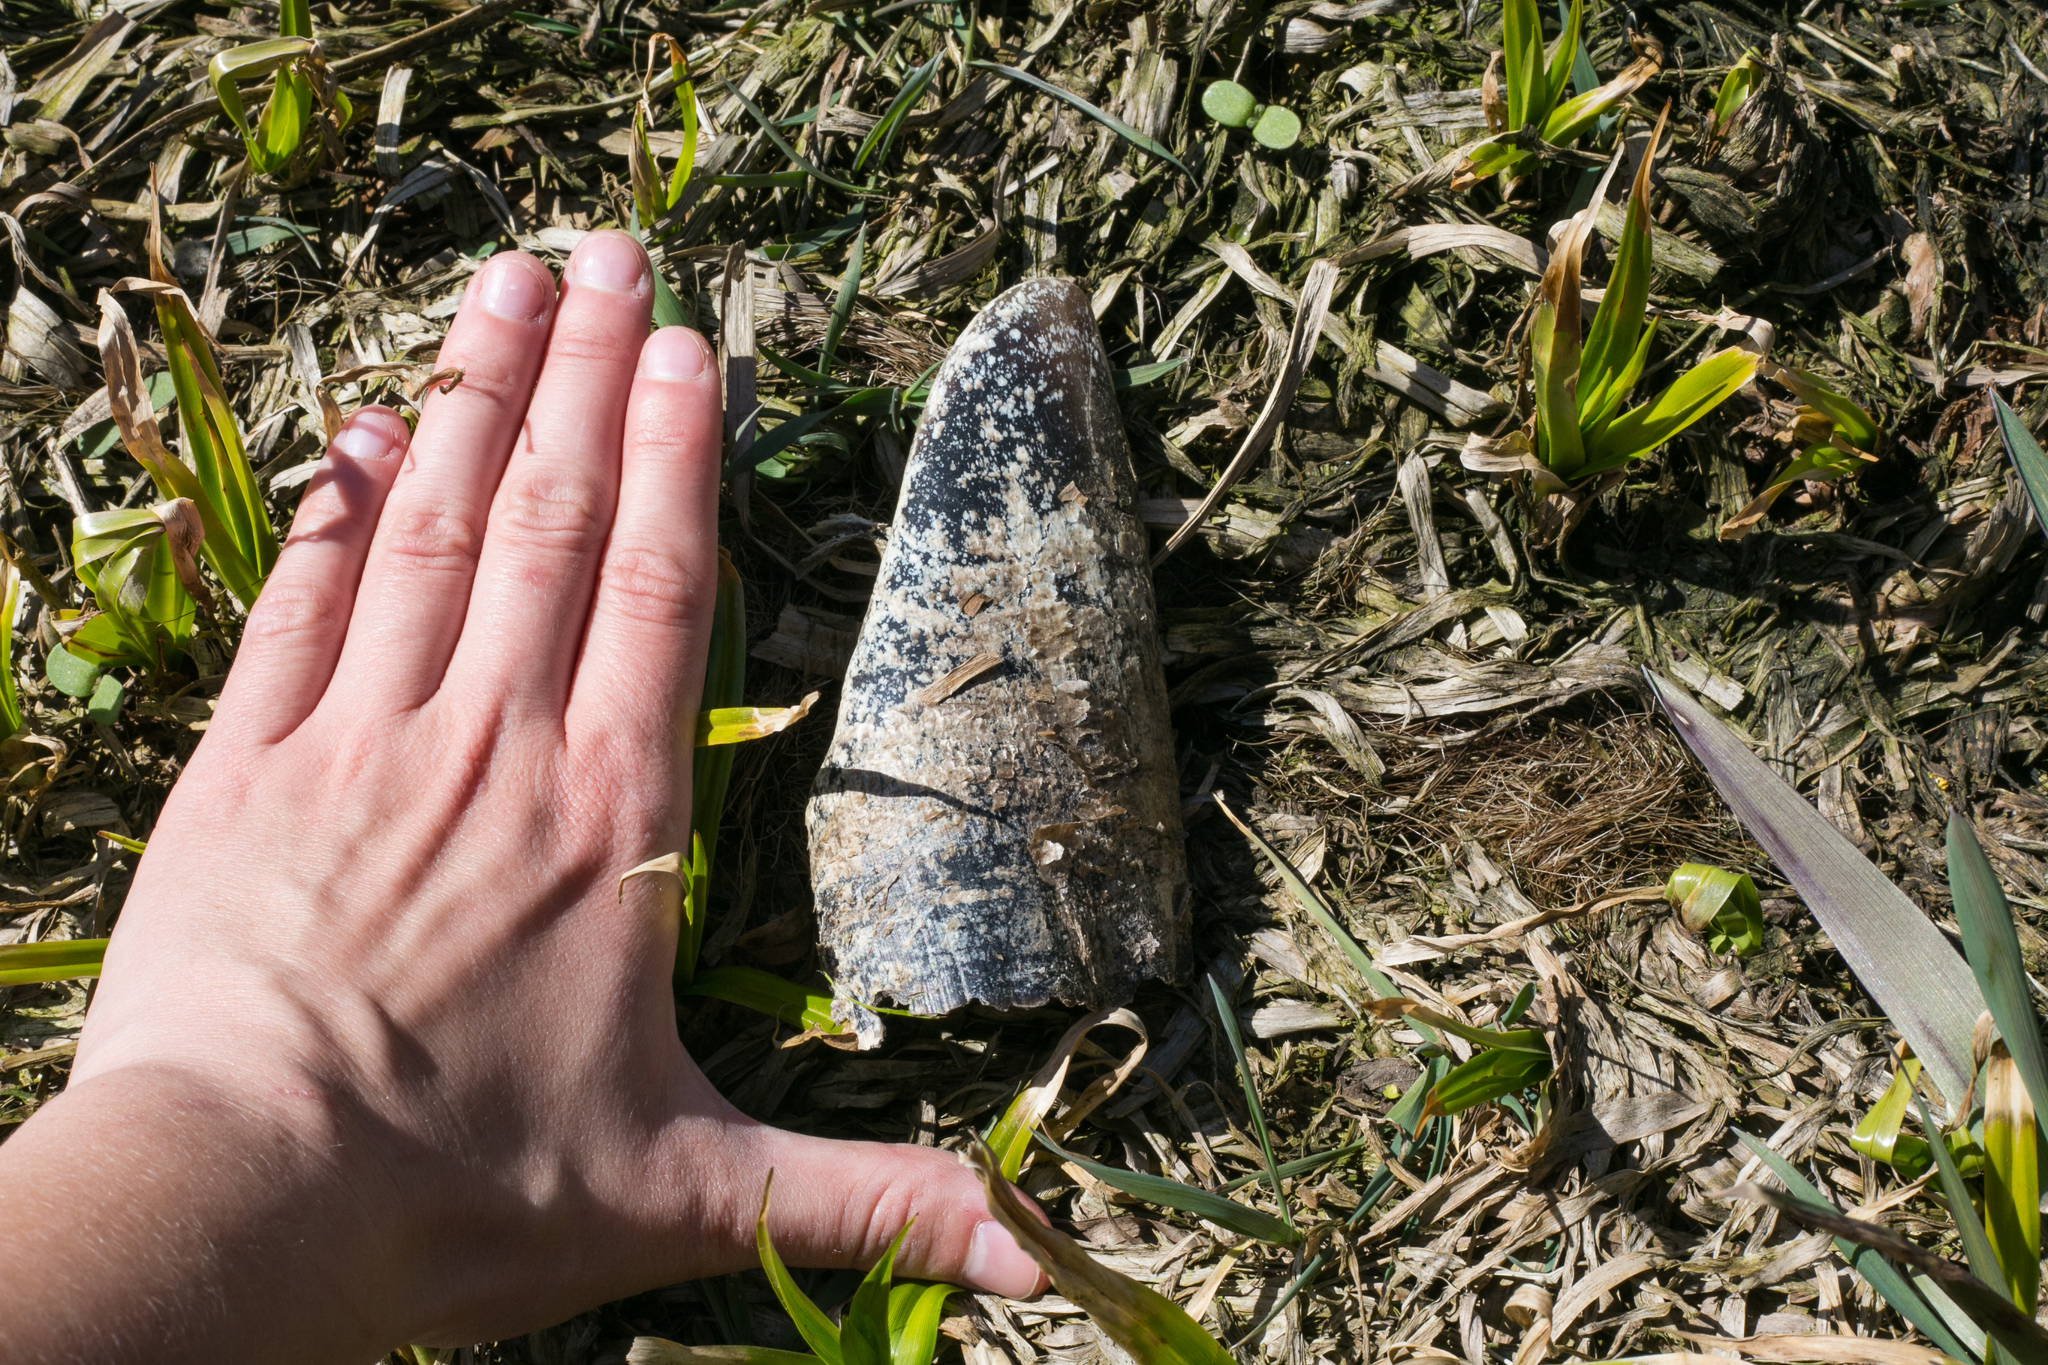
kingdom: Animalia
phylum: Chordata
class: Mammalia
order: Artiodactyla
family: Cervidae
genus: Alces
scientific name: Alces alces
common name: Moose
